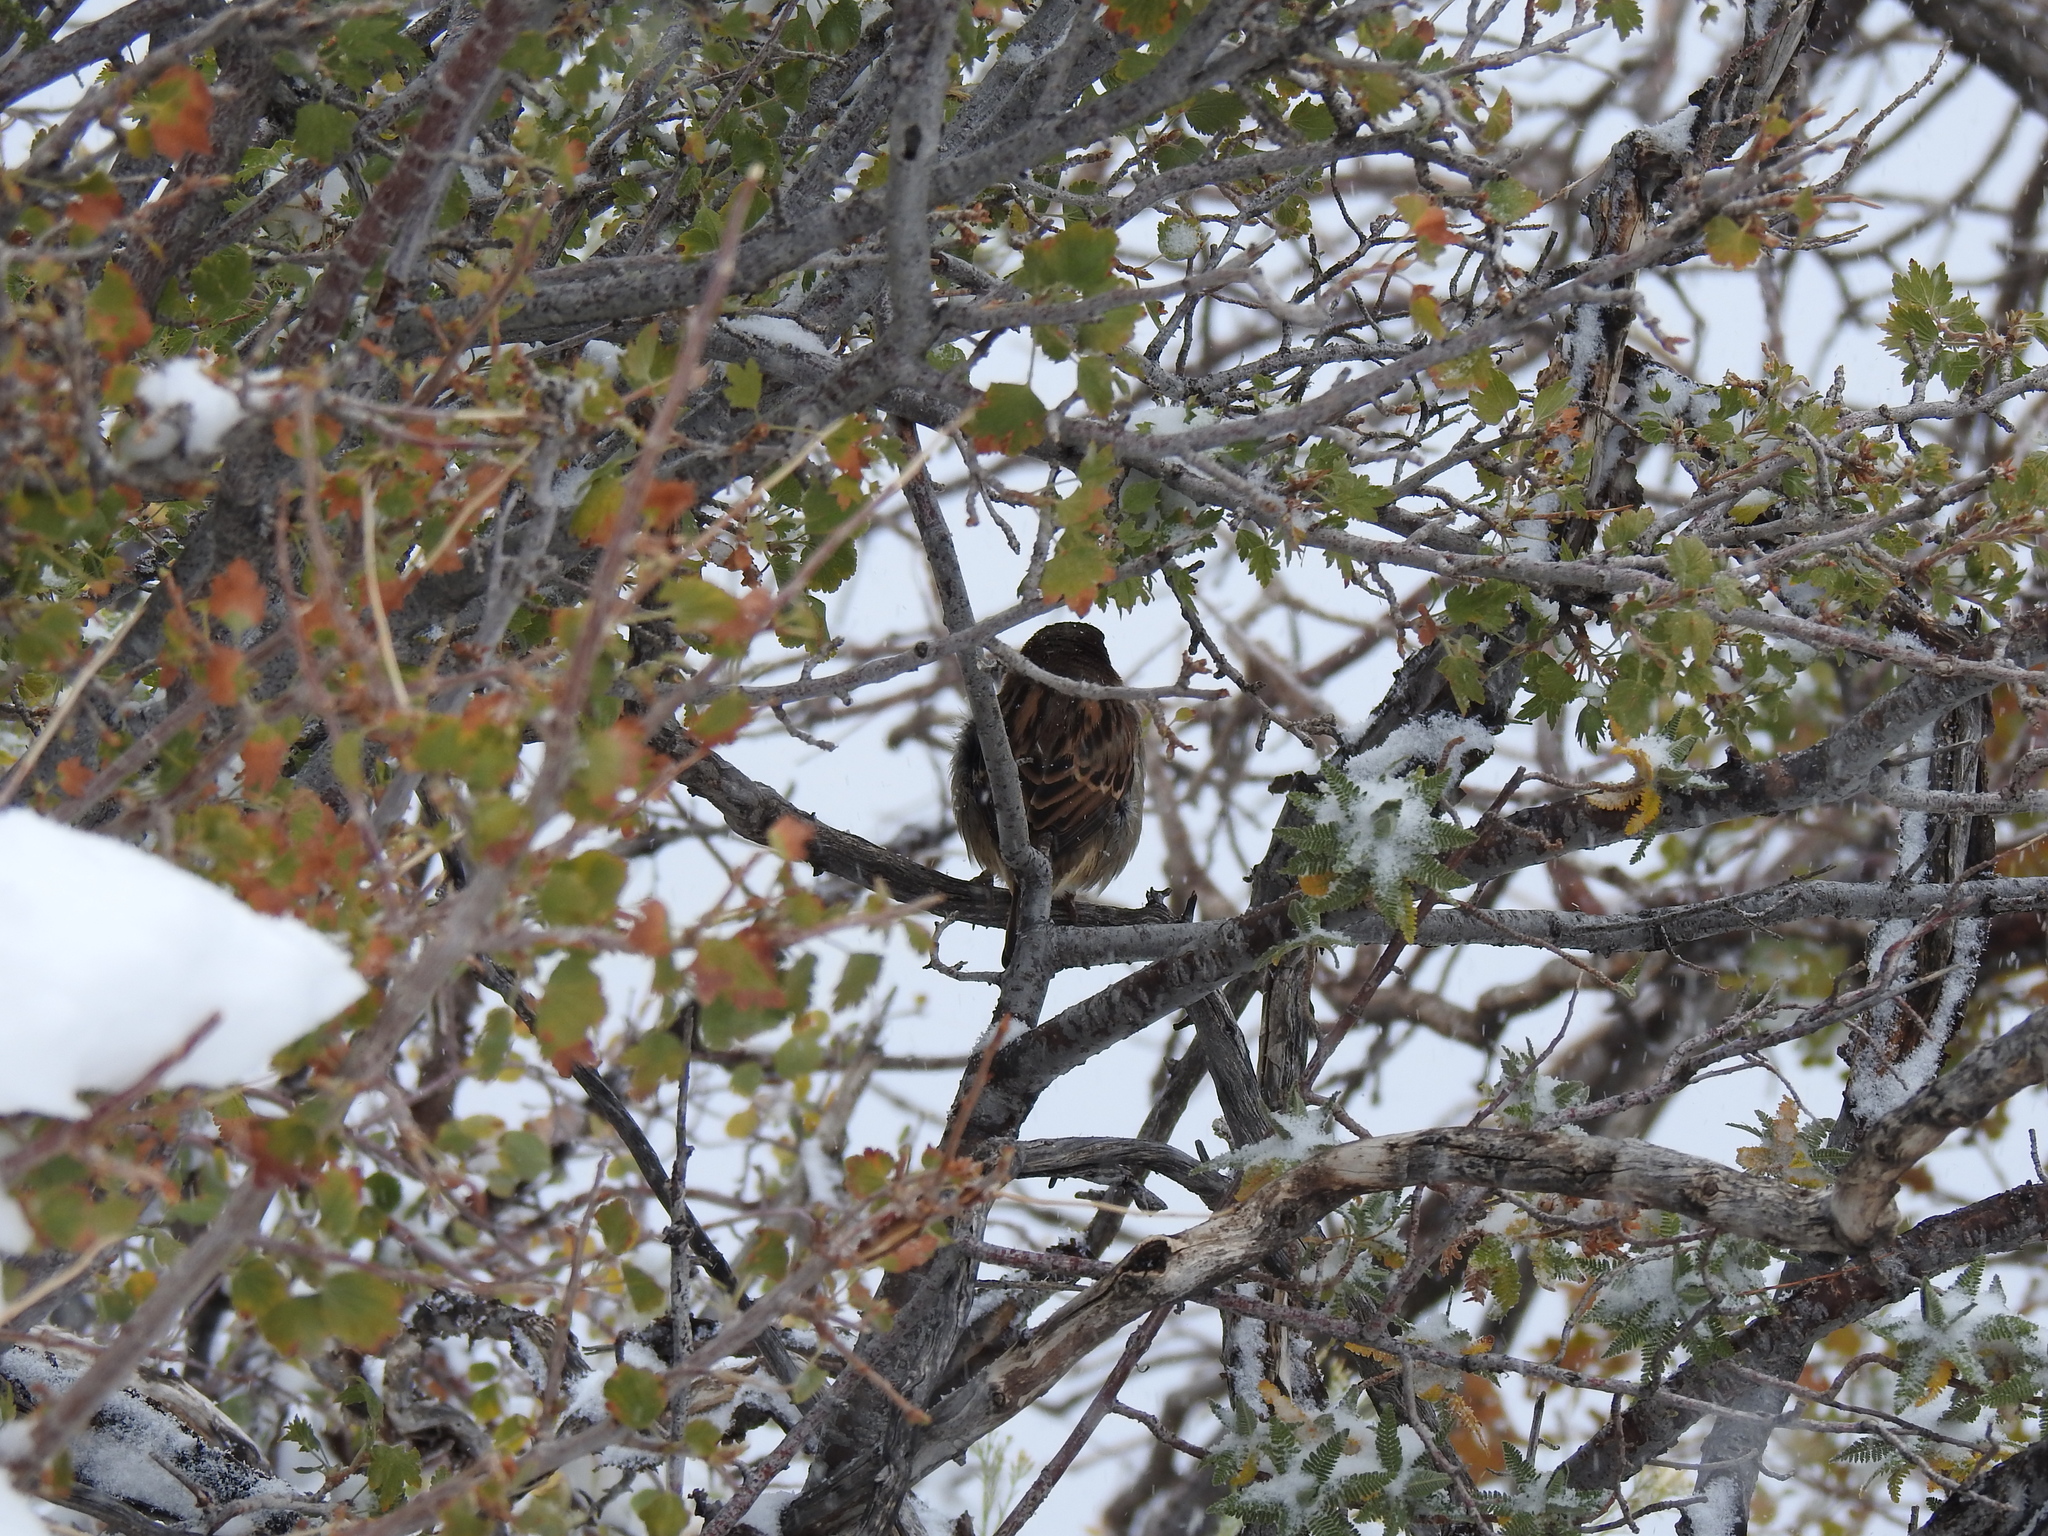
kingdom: Animalia
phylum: Chordata
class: Aves
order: Passeriformes
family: Passeridae
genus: Passer
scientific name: Passer domesticus
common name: House sparrow
